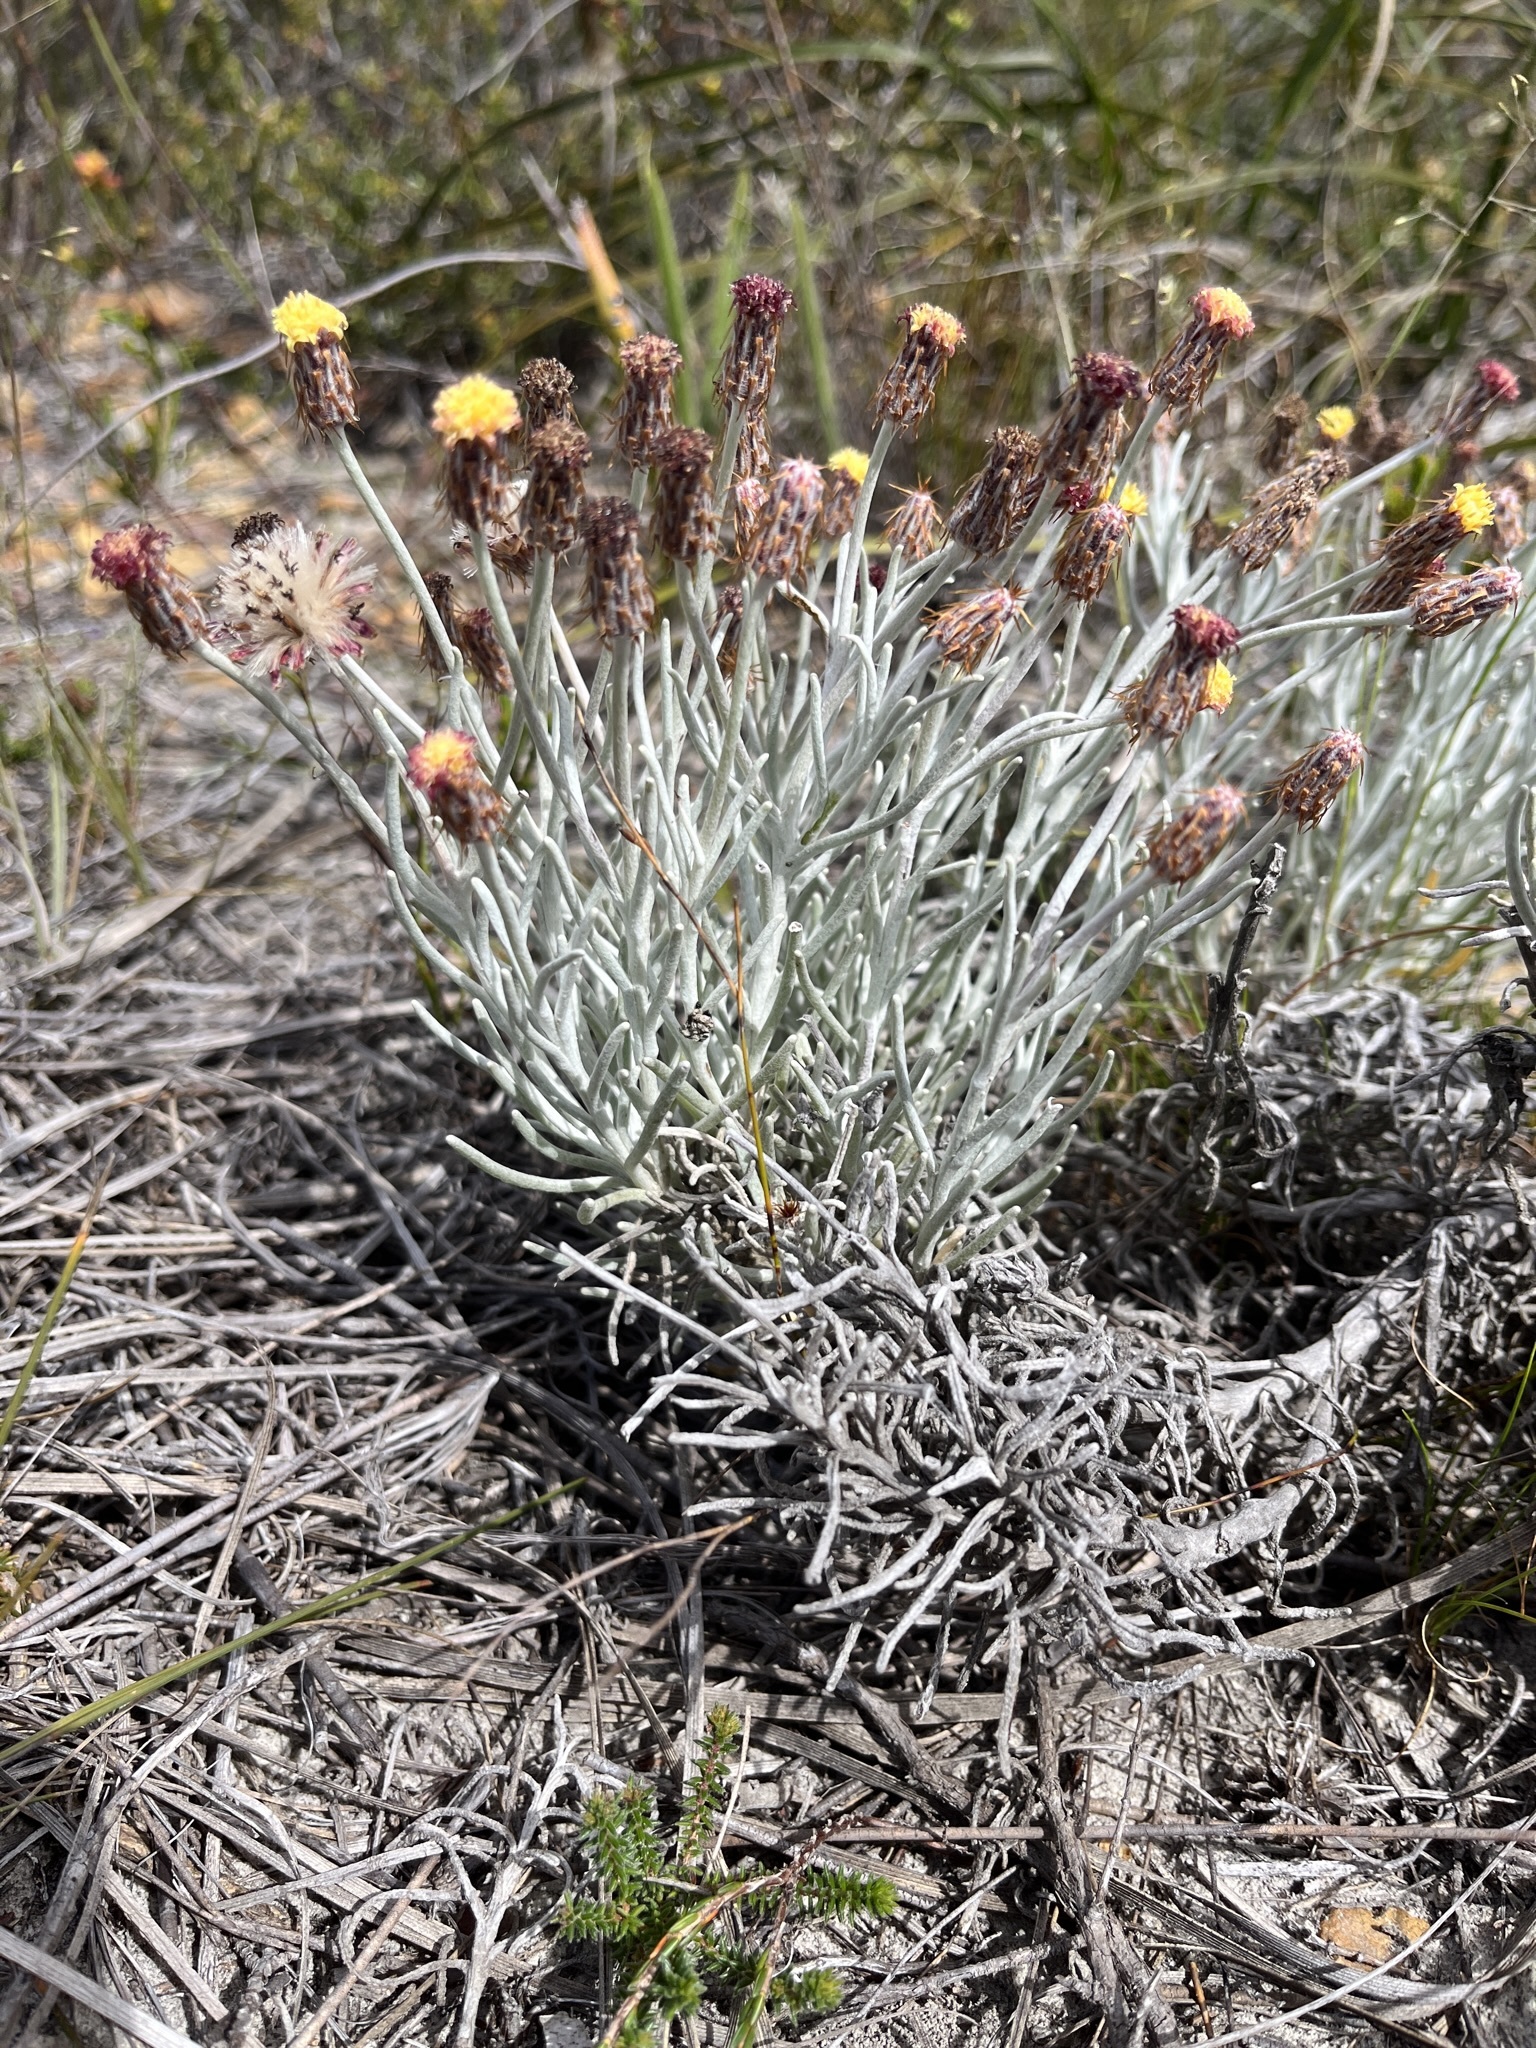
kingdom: Plantae
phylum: Tracheophyta
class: Magnoliopsida
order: Asterales
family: Asteraceae
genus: Syncarpha
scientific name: Syncarpha gnaphaloides
